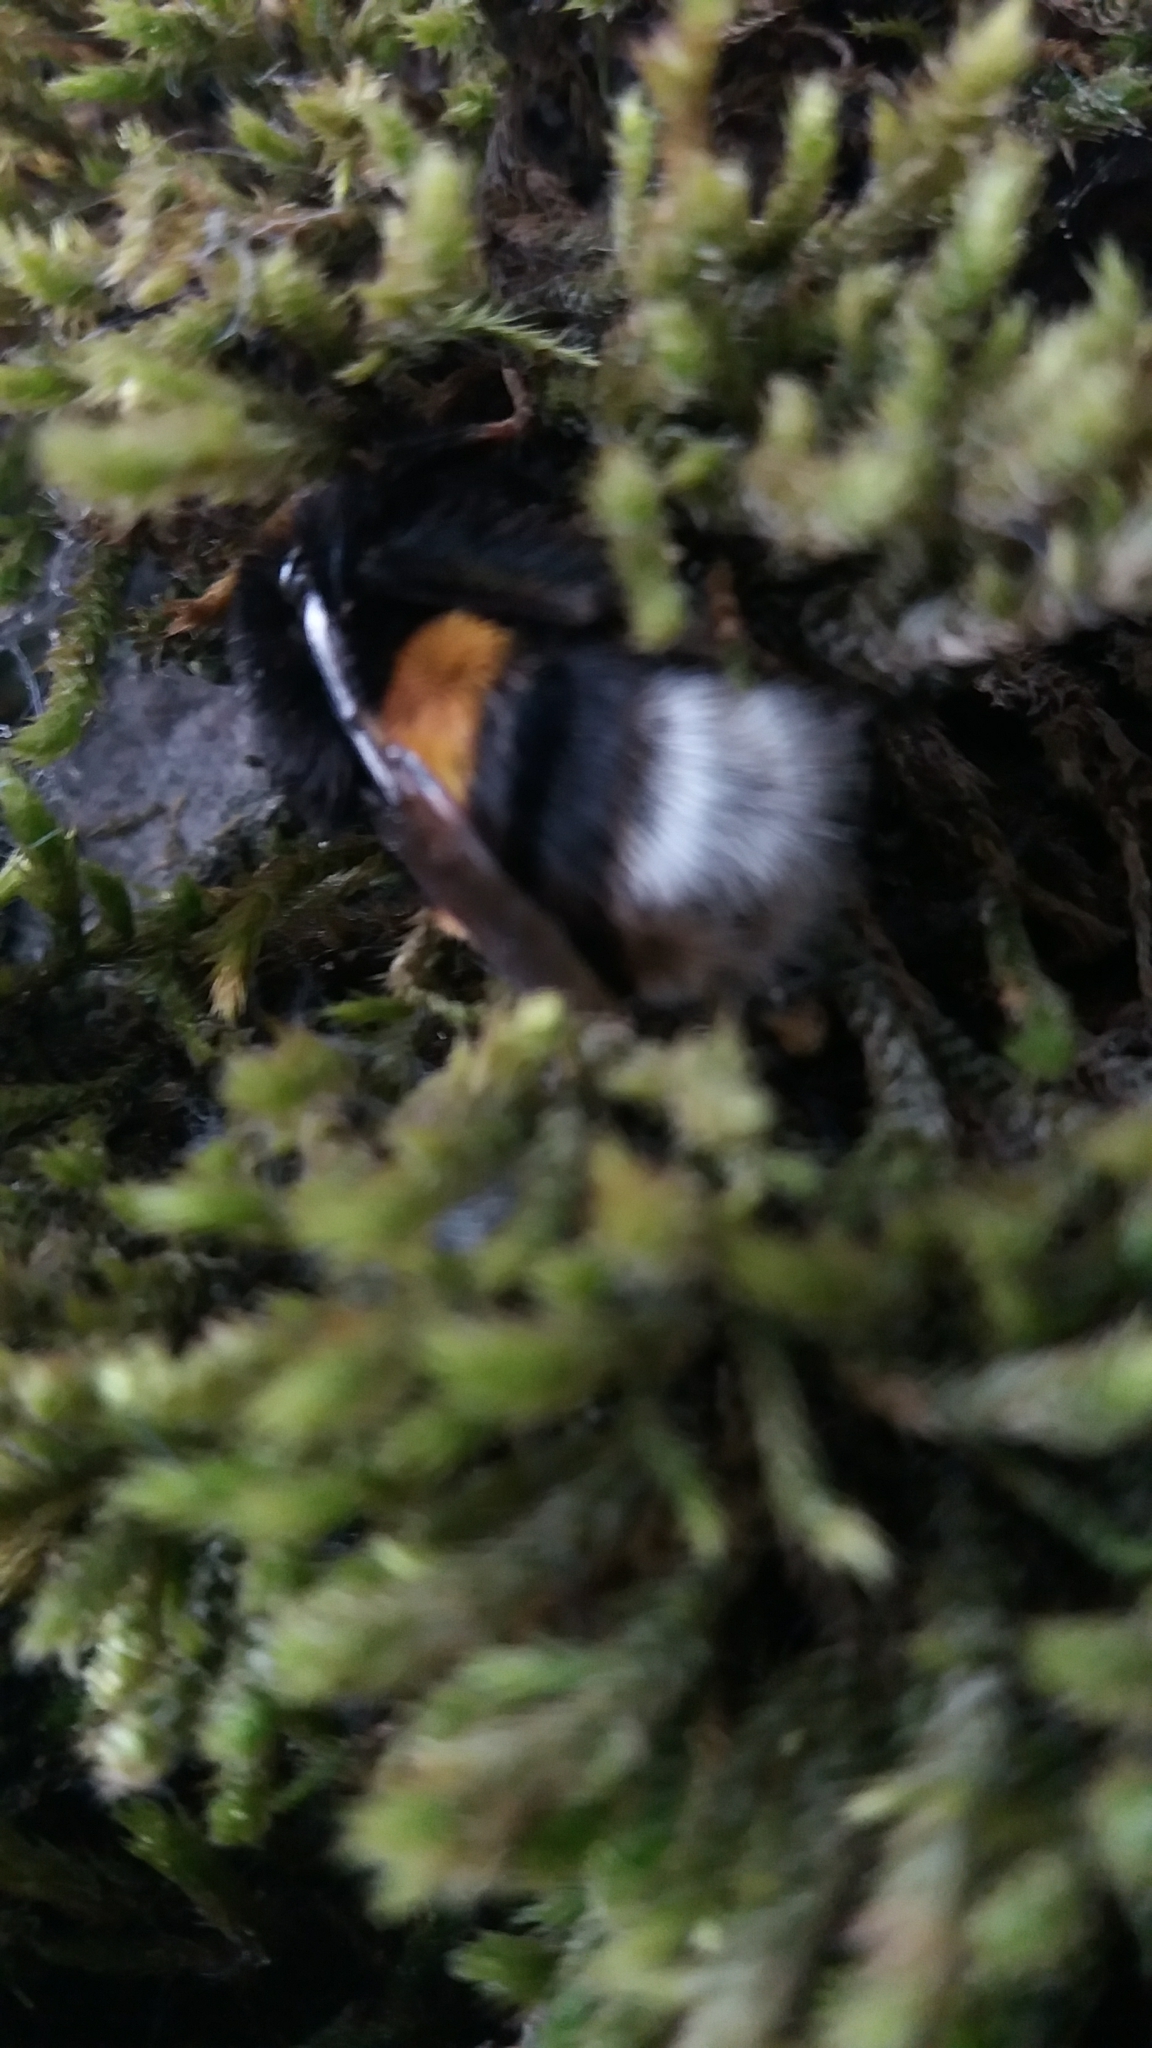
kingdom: Animalia
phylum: Arthropoda
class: Insecta
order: Hymenoptera
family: Apidae
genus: Bombus
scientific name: Bombus
